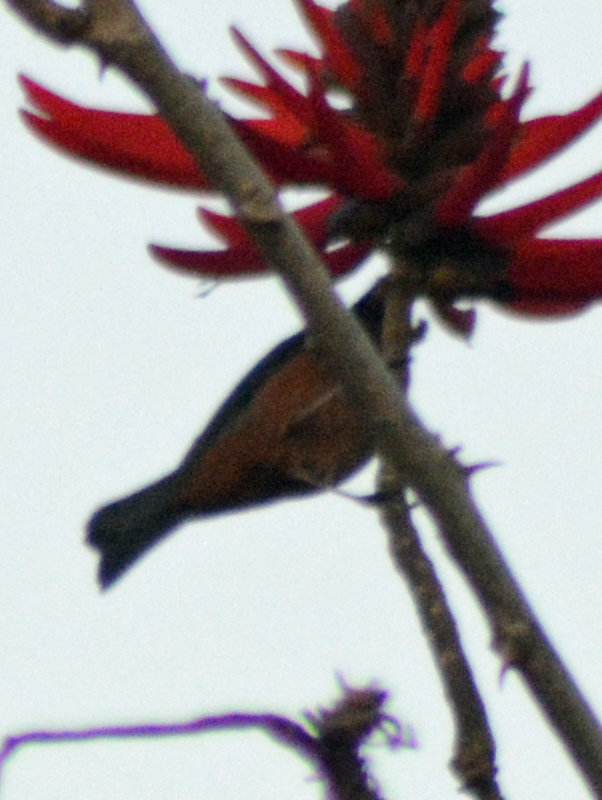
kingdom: Animalia
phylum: Chordata
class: Aves
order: Passeriformes
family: Thraupidae
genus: Diglossa
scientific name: Diglossa baritula
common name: Cinnamon-bellied flowerpiercer
